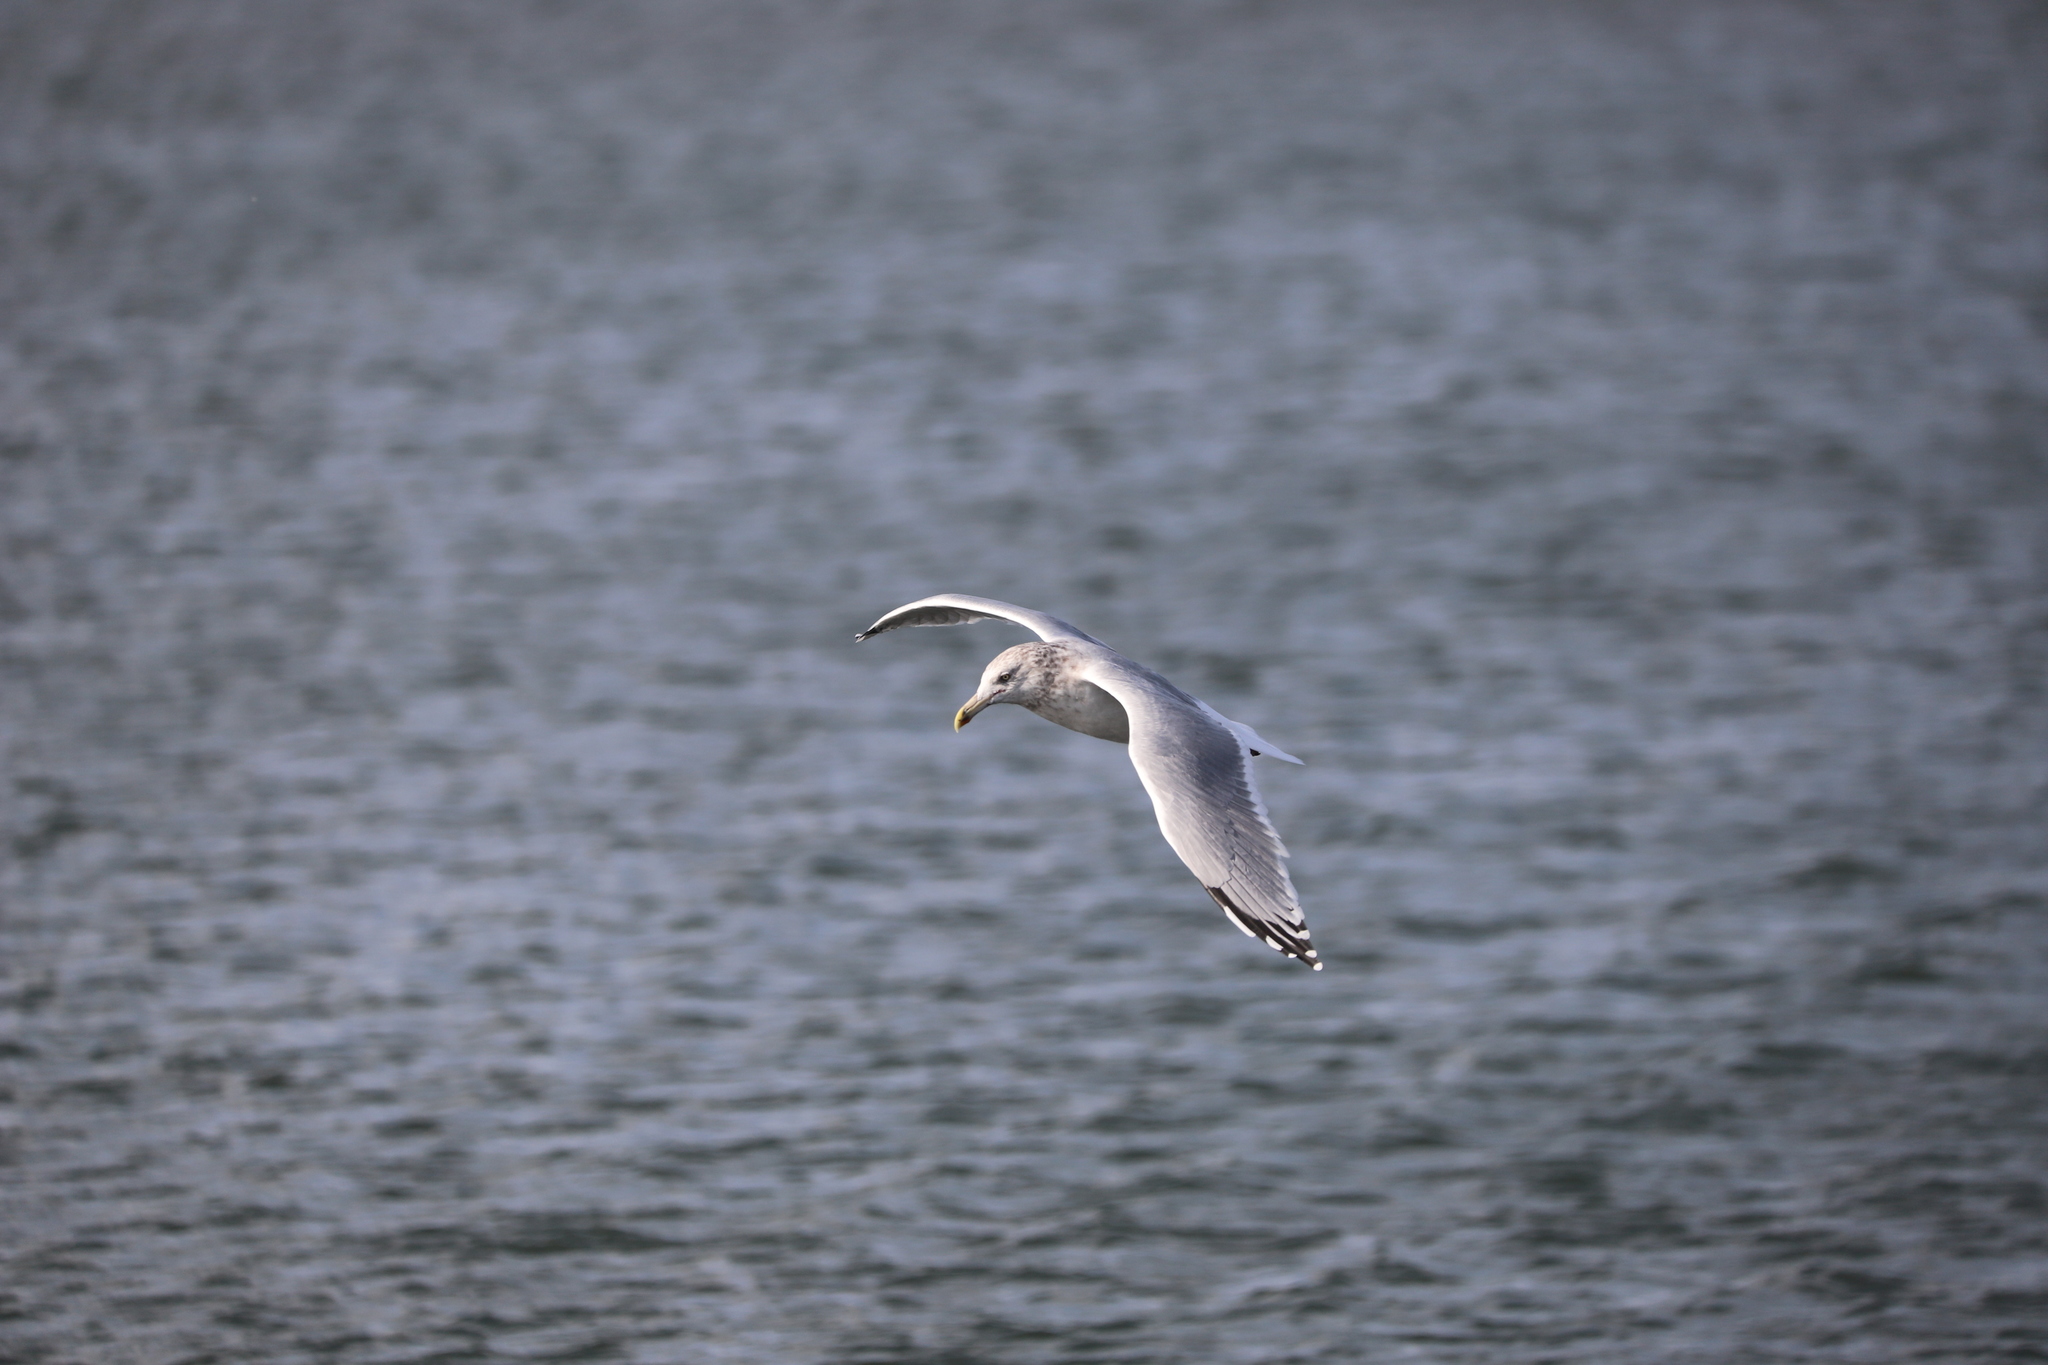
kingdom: Animalia
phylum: Chordata
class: Aves
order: Charadriiformes
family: Laridae
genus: Larus
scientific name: Larus argentatus
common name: Herring gull
